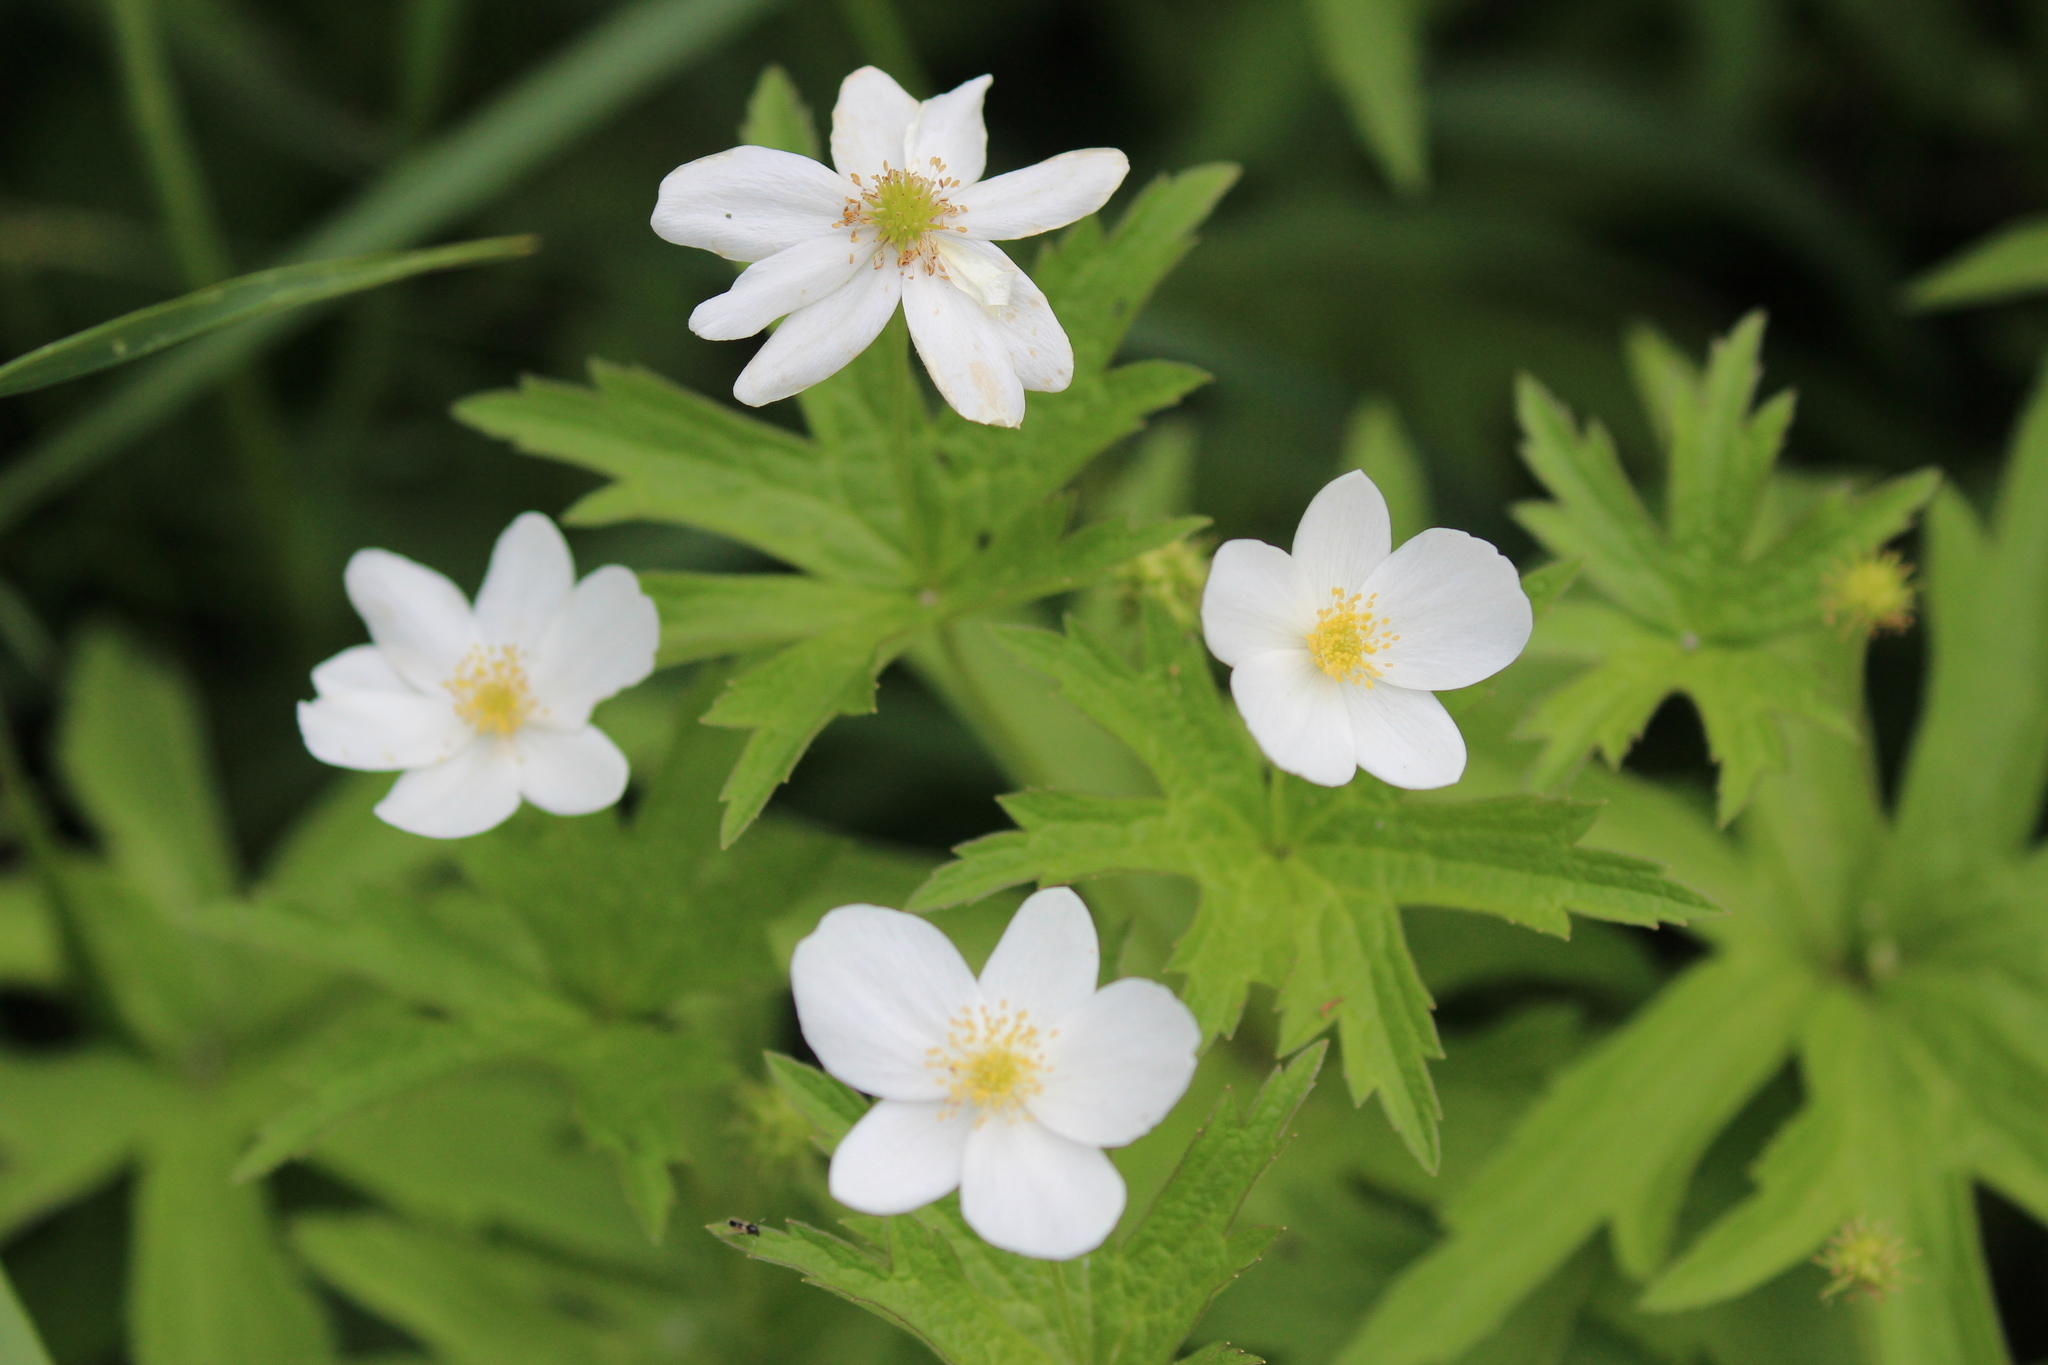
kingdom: Plantae
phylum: Tracheophyta
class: Magnoliopsida
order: Ranunculales
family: Ranunculaceae
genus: Anemonastrum
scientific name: Anemonastrum canadense
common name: Canada anemone
